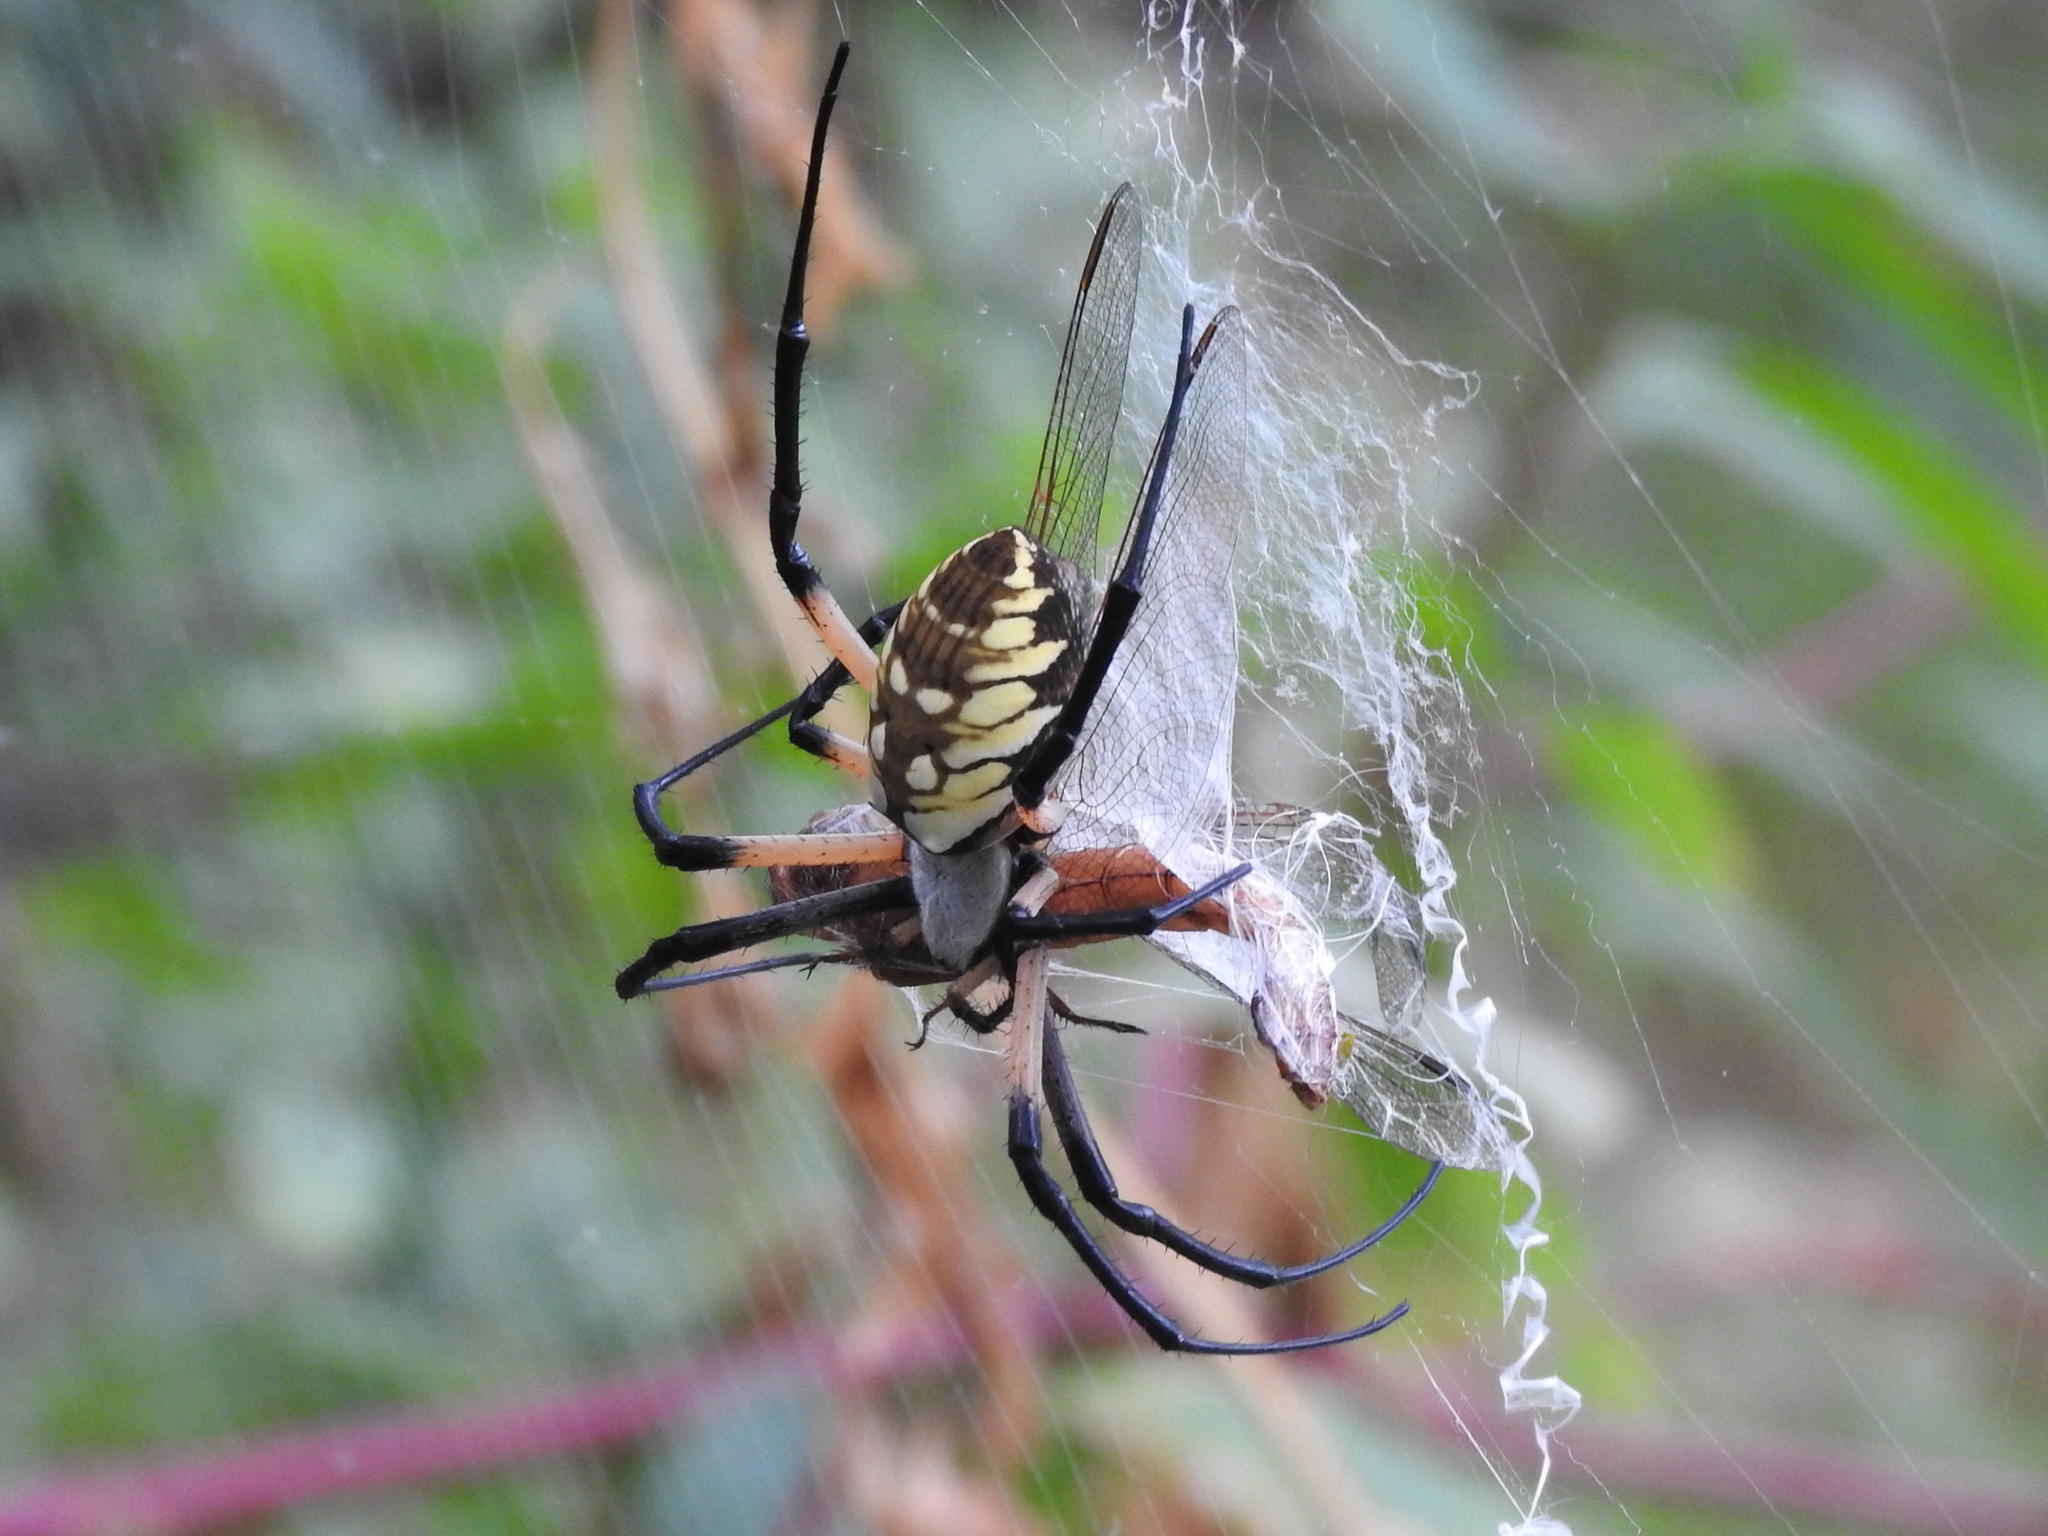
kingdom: Animalia
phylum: Arthropoda
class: Arachnida
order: Araneae
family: Araneidae
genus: Argiope
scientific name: Argiope aurantia
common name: Orb weavers
